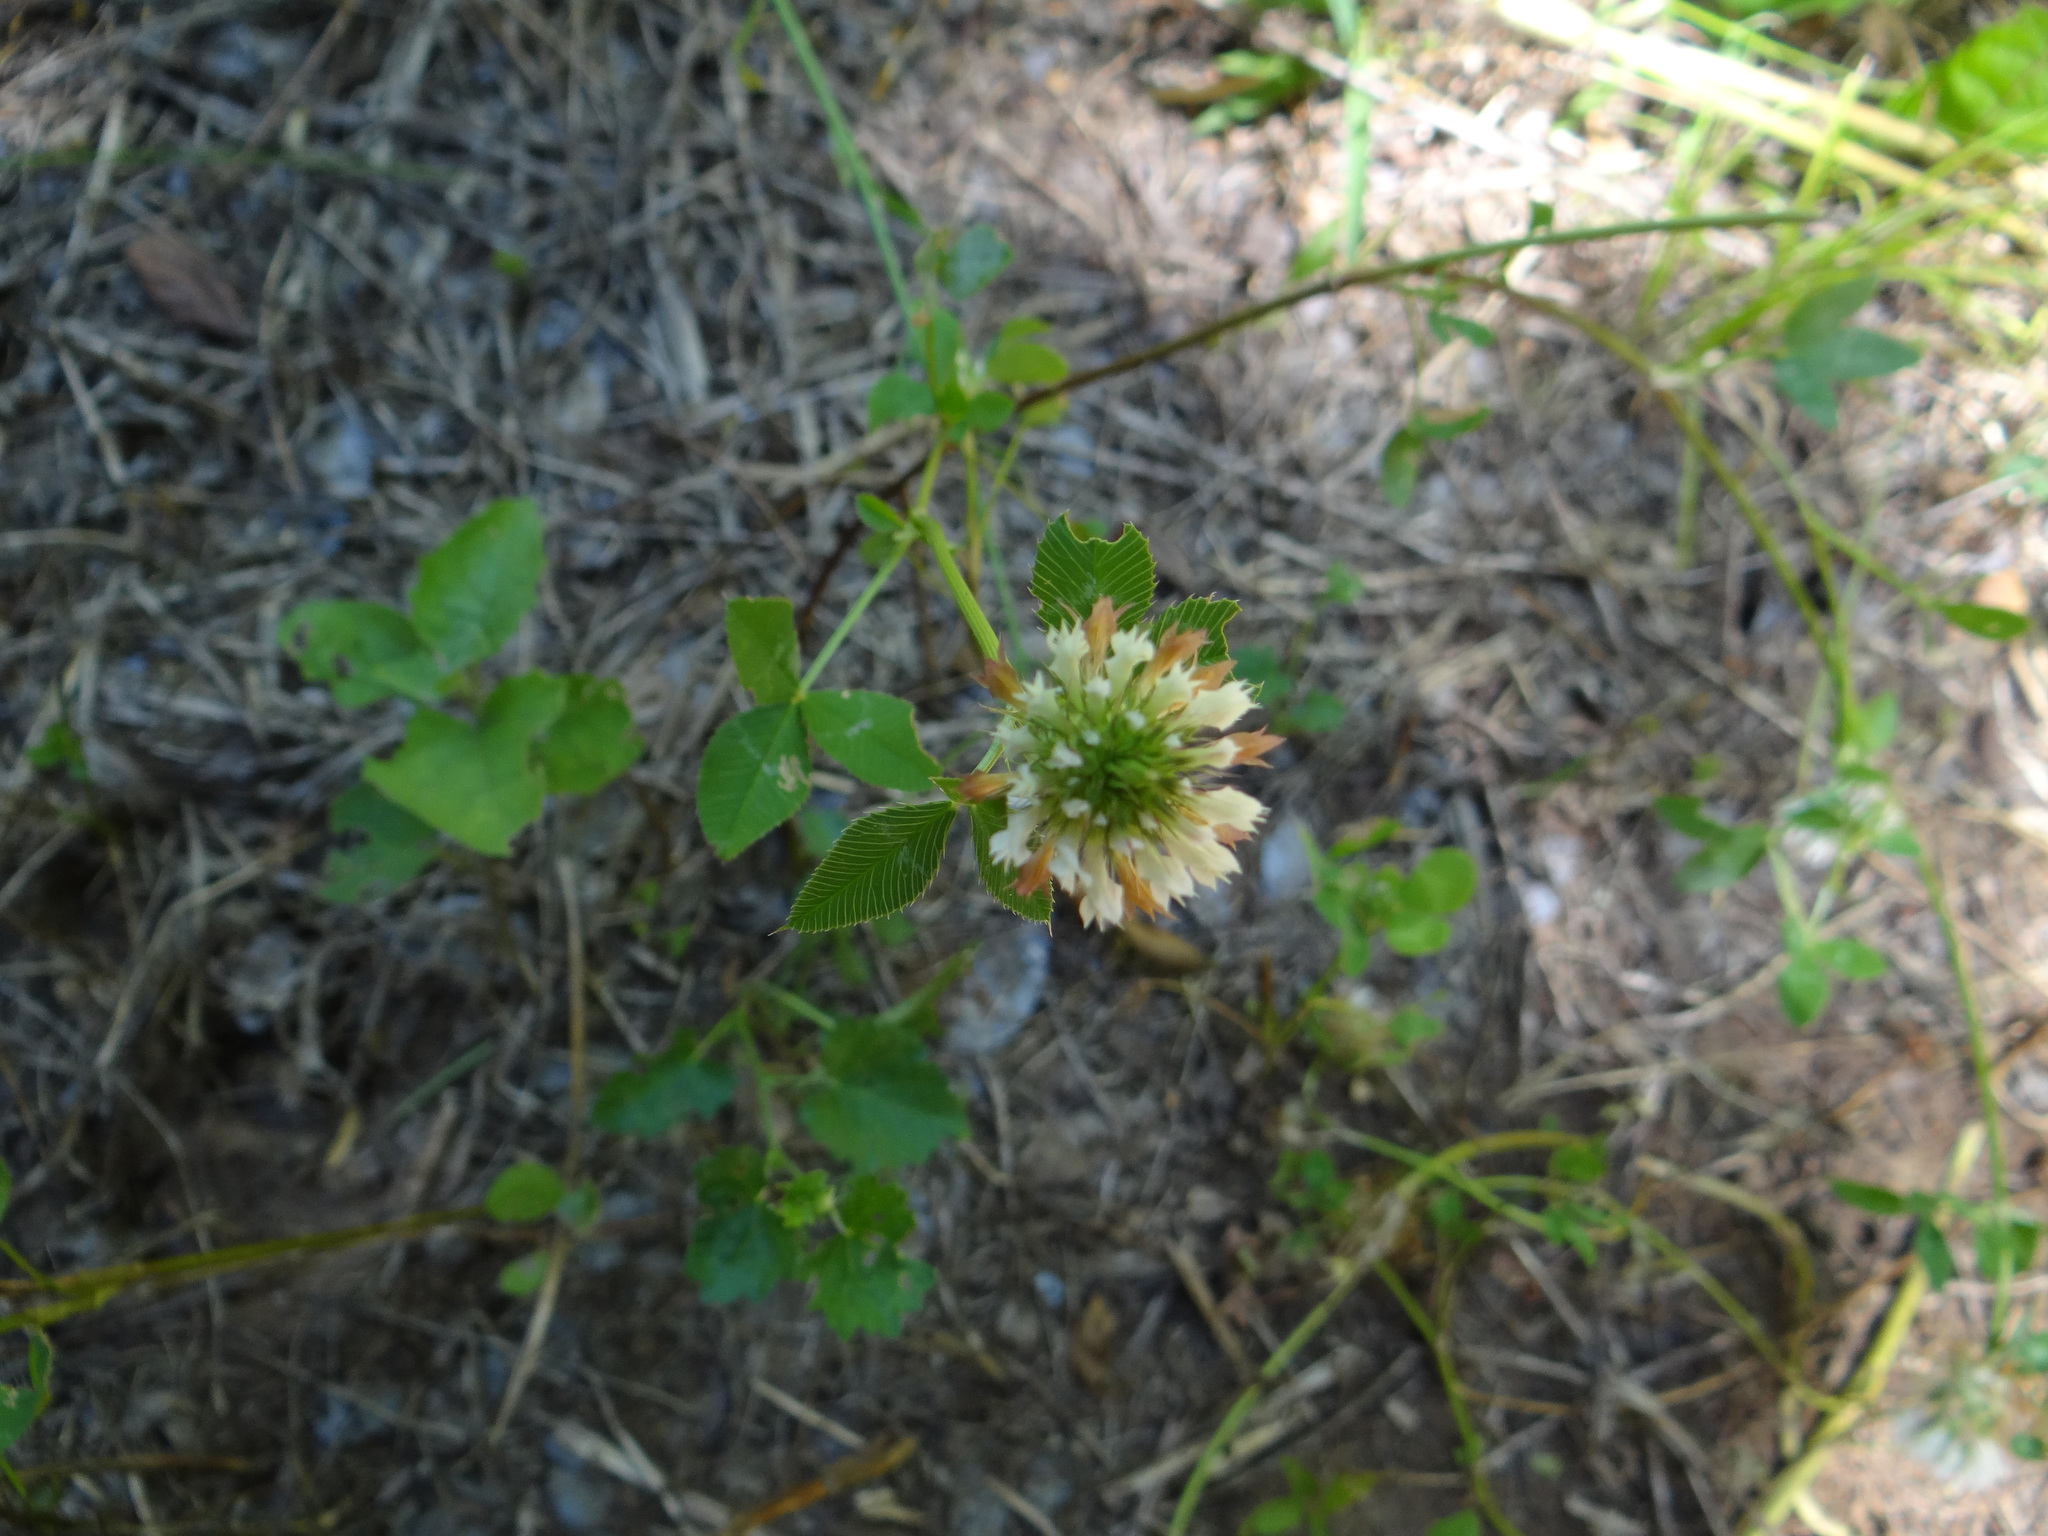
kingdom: Plantae
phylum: Tracheophyta
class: Magnoliopsida
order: Fabales
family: Fabaceae
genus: Trifolium
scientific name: Trifolium vesiculosum
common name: Arrowleaf clover
